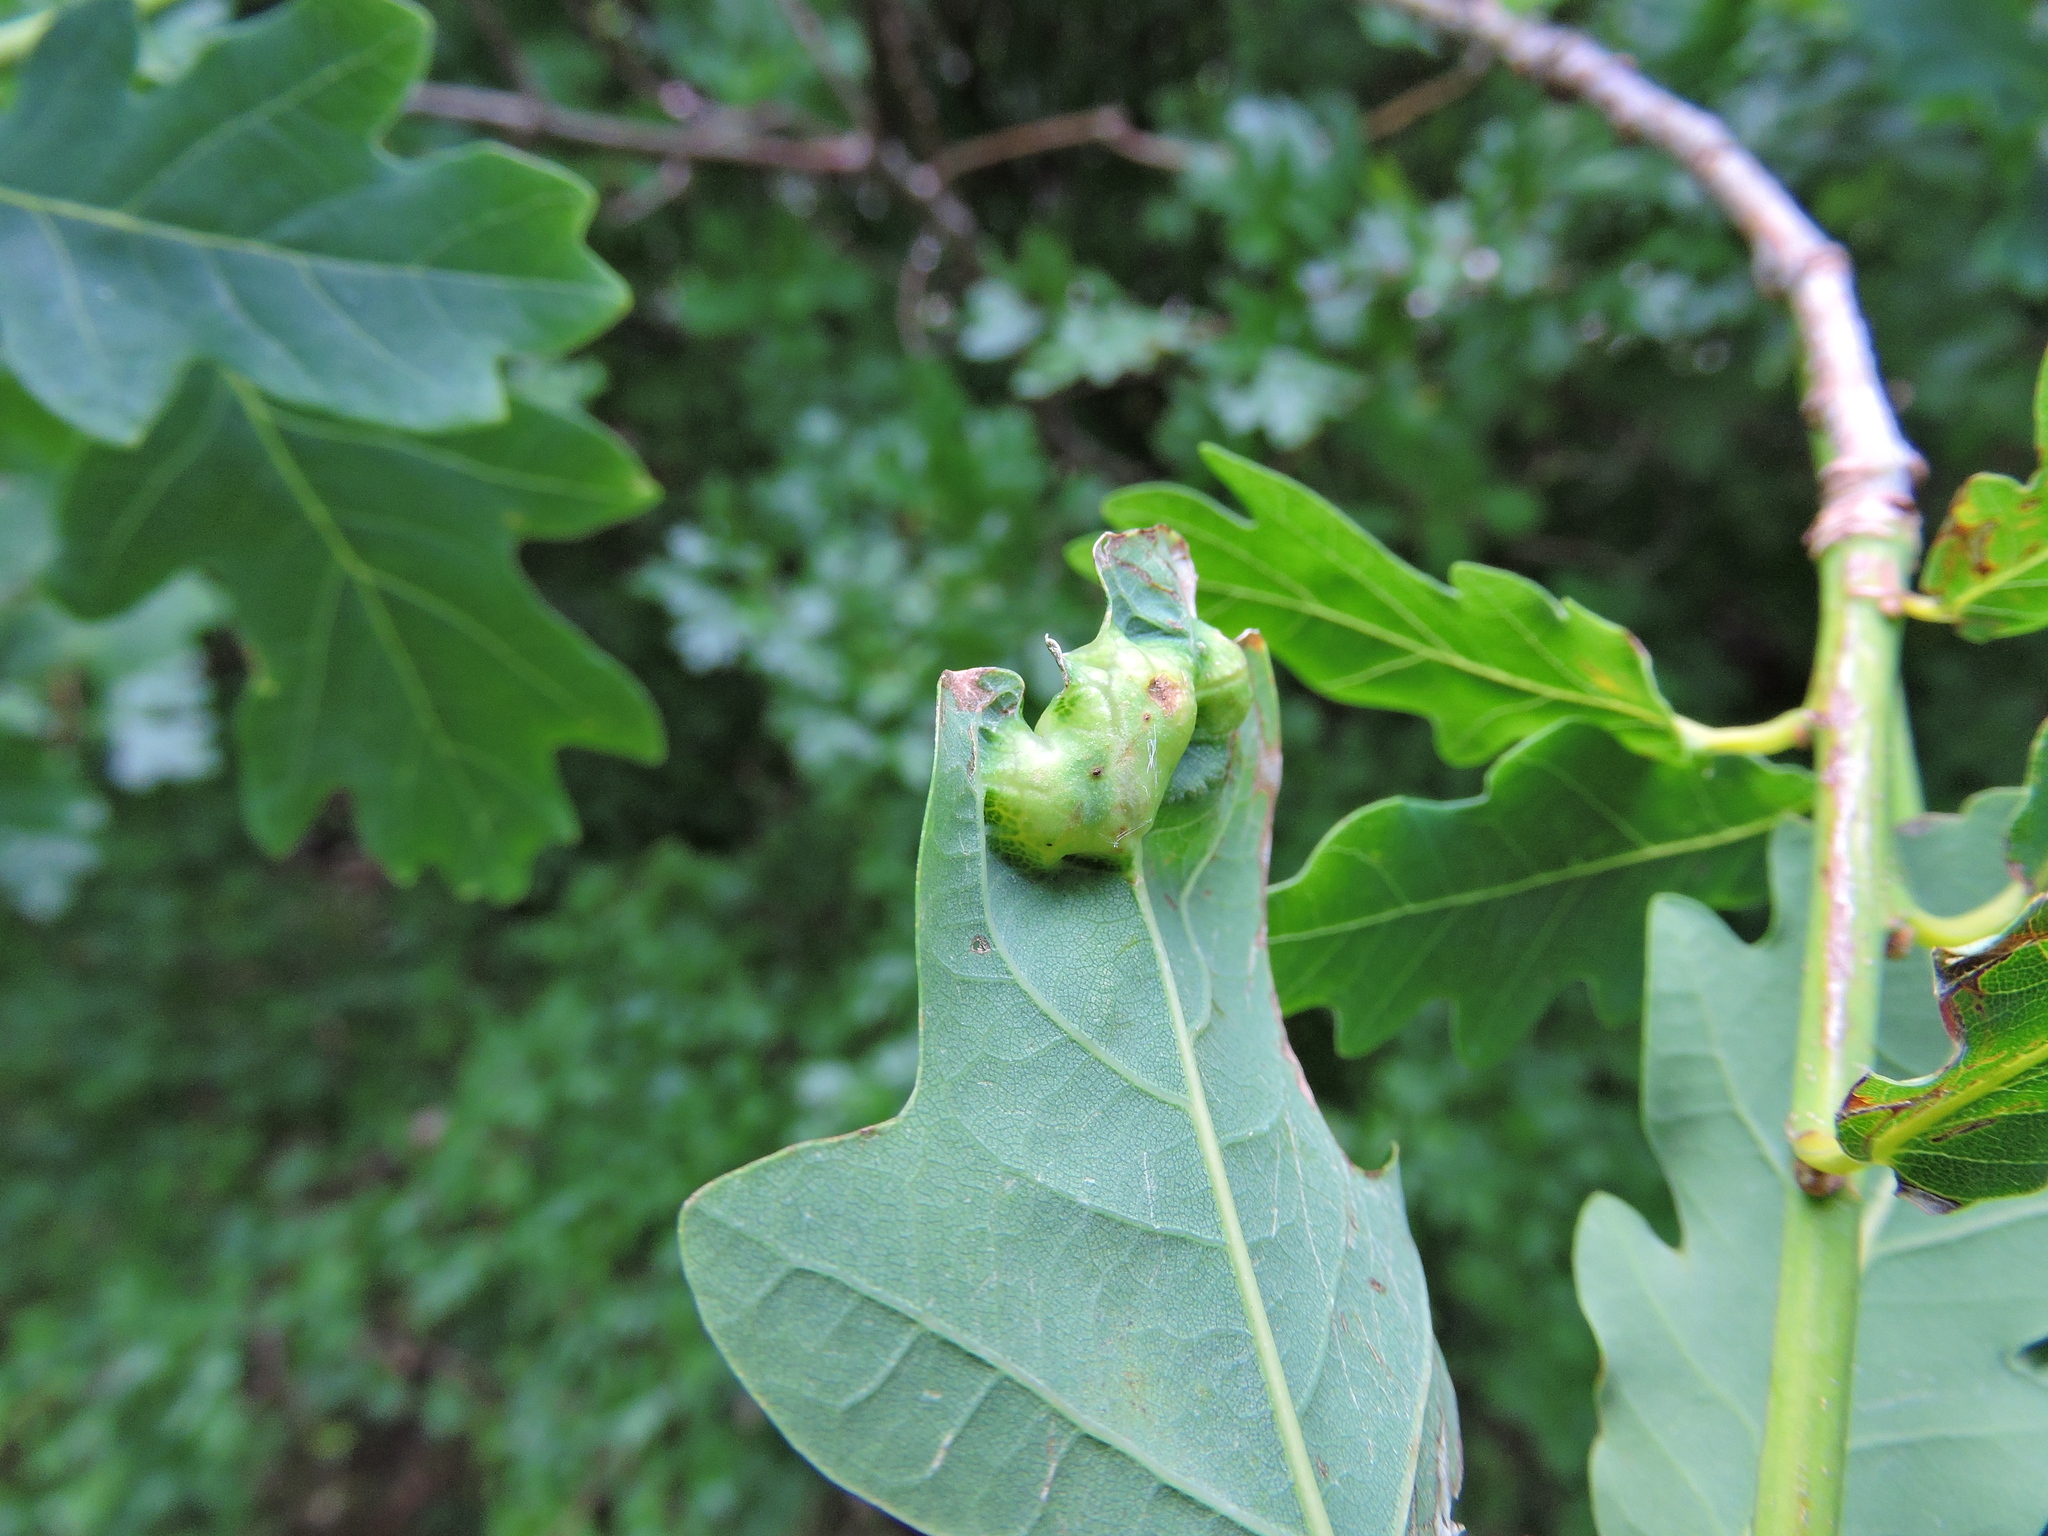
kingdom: Animalia
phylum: Arthropoda
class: Insecta
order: Hymenoptera
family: Cynipidae
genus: Andricus
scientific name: Andricus curvator
